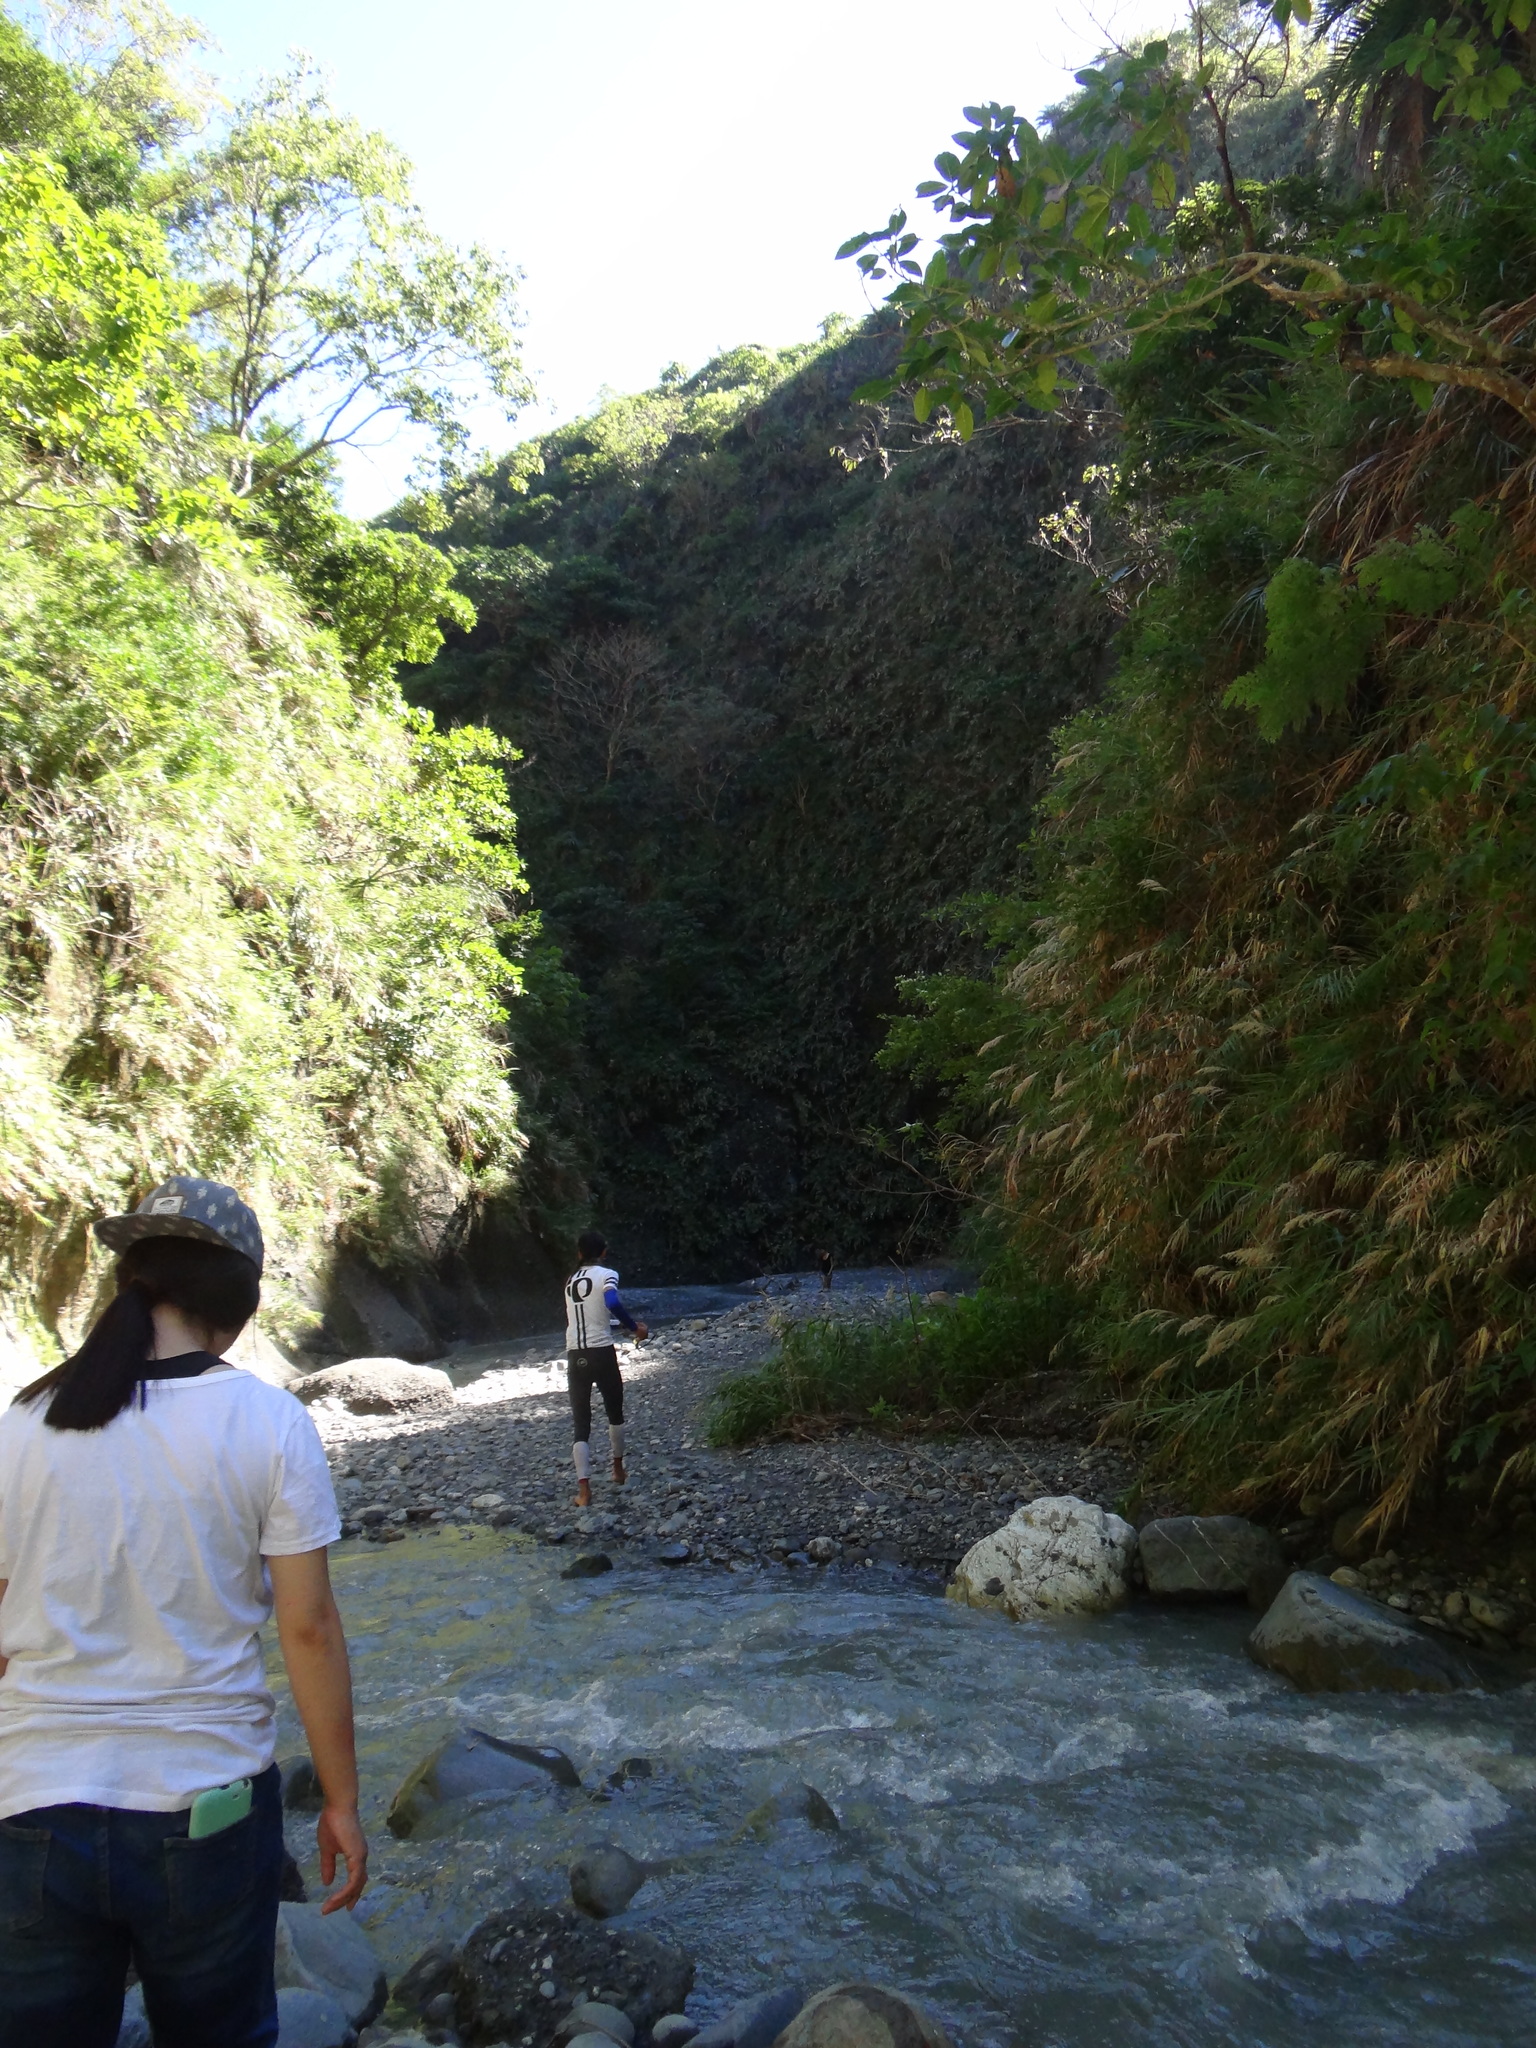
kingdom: Plantae
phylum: Tracheophyta
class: Liliopsida
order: Arecales
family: Arecaceae
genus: Phoenix
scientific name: Phoenix loureiroi
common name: Loureiro's palm
